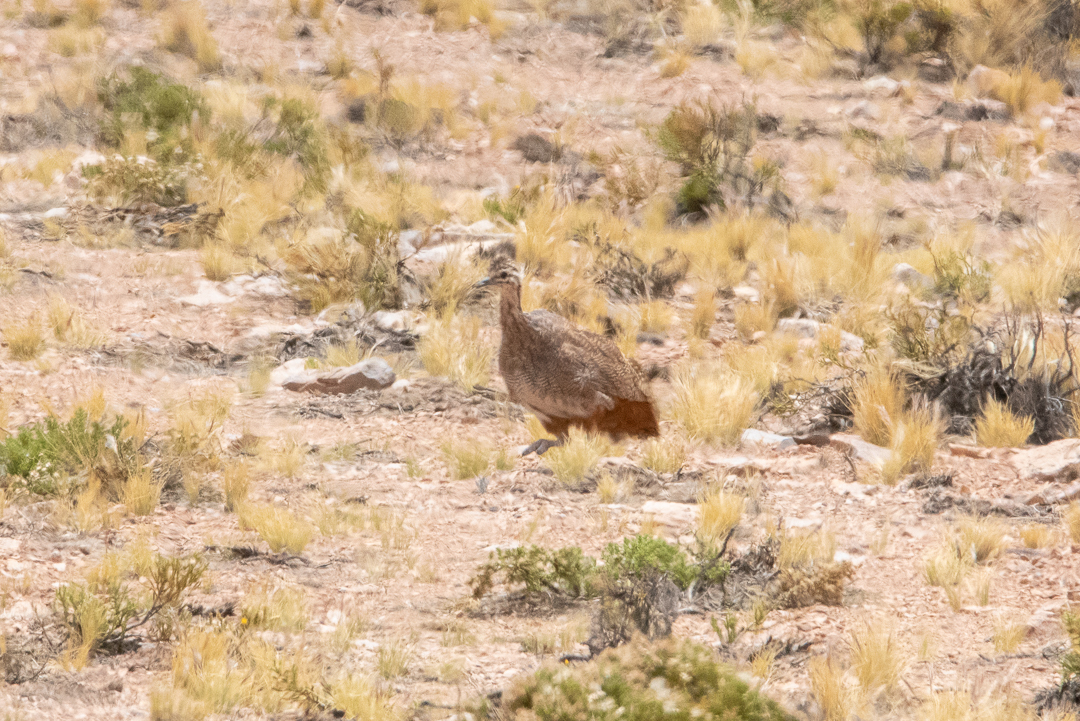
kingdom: Animalia
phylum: Chordata
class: Aves
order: Tinamiformes
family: Tinamidae
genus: Tinamotis
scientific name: Tinamotis pentlandii
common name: Puna tinamou
